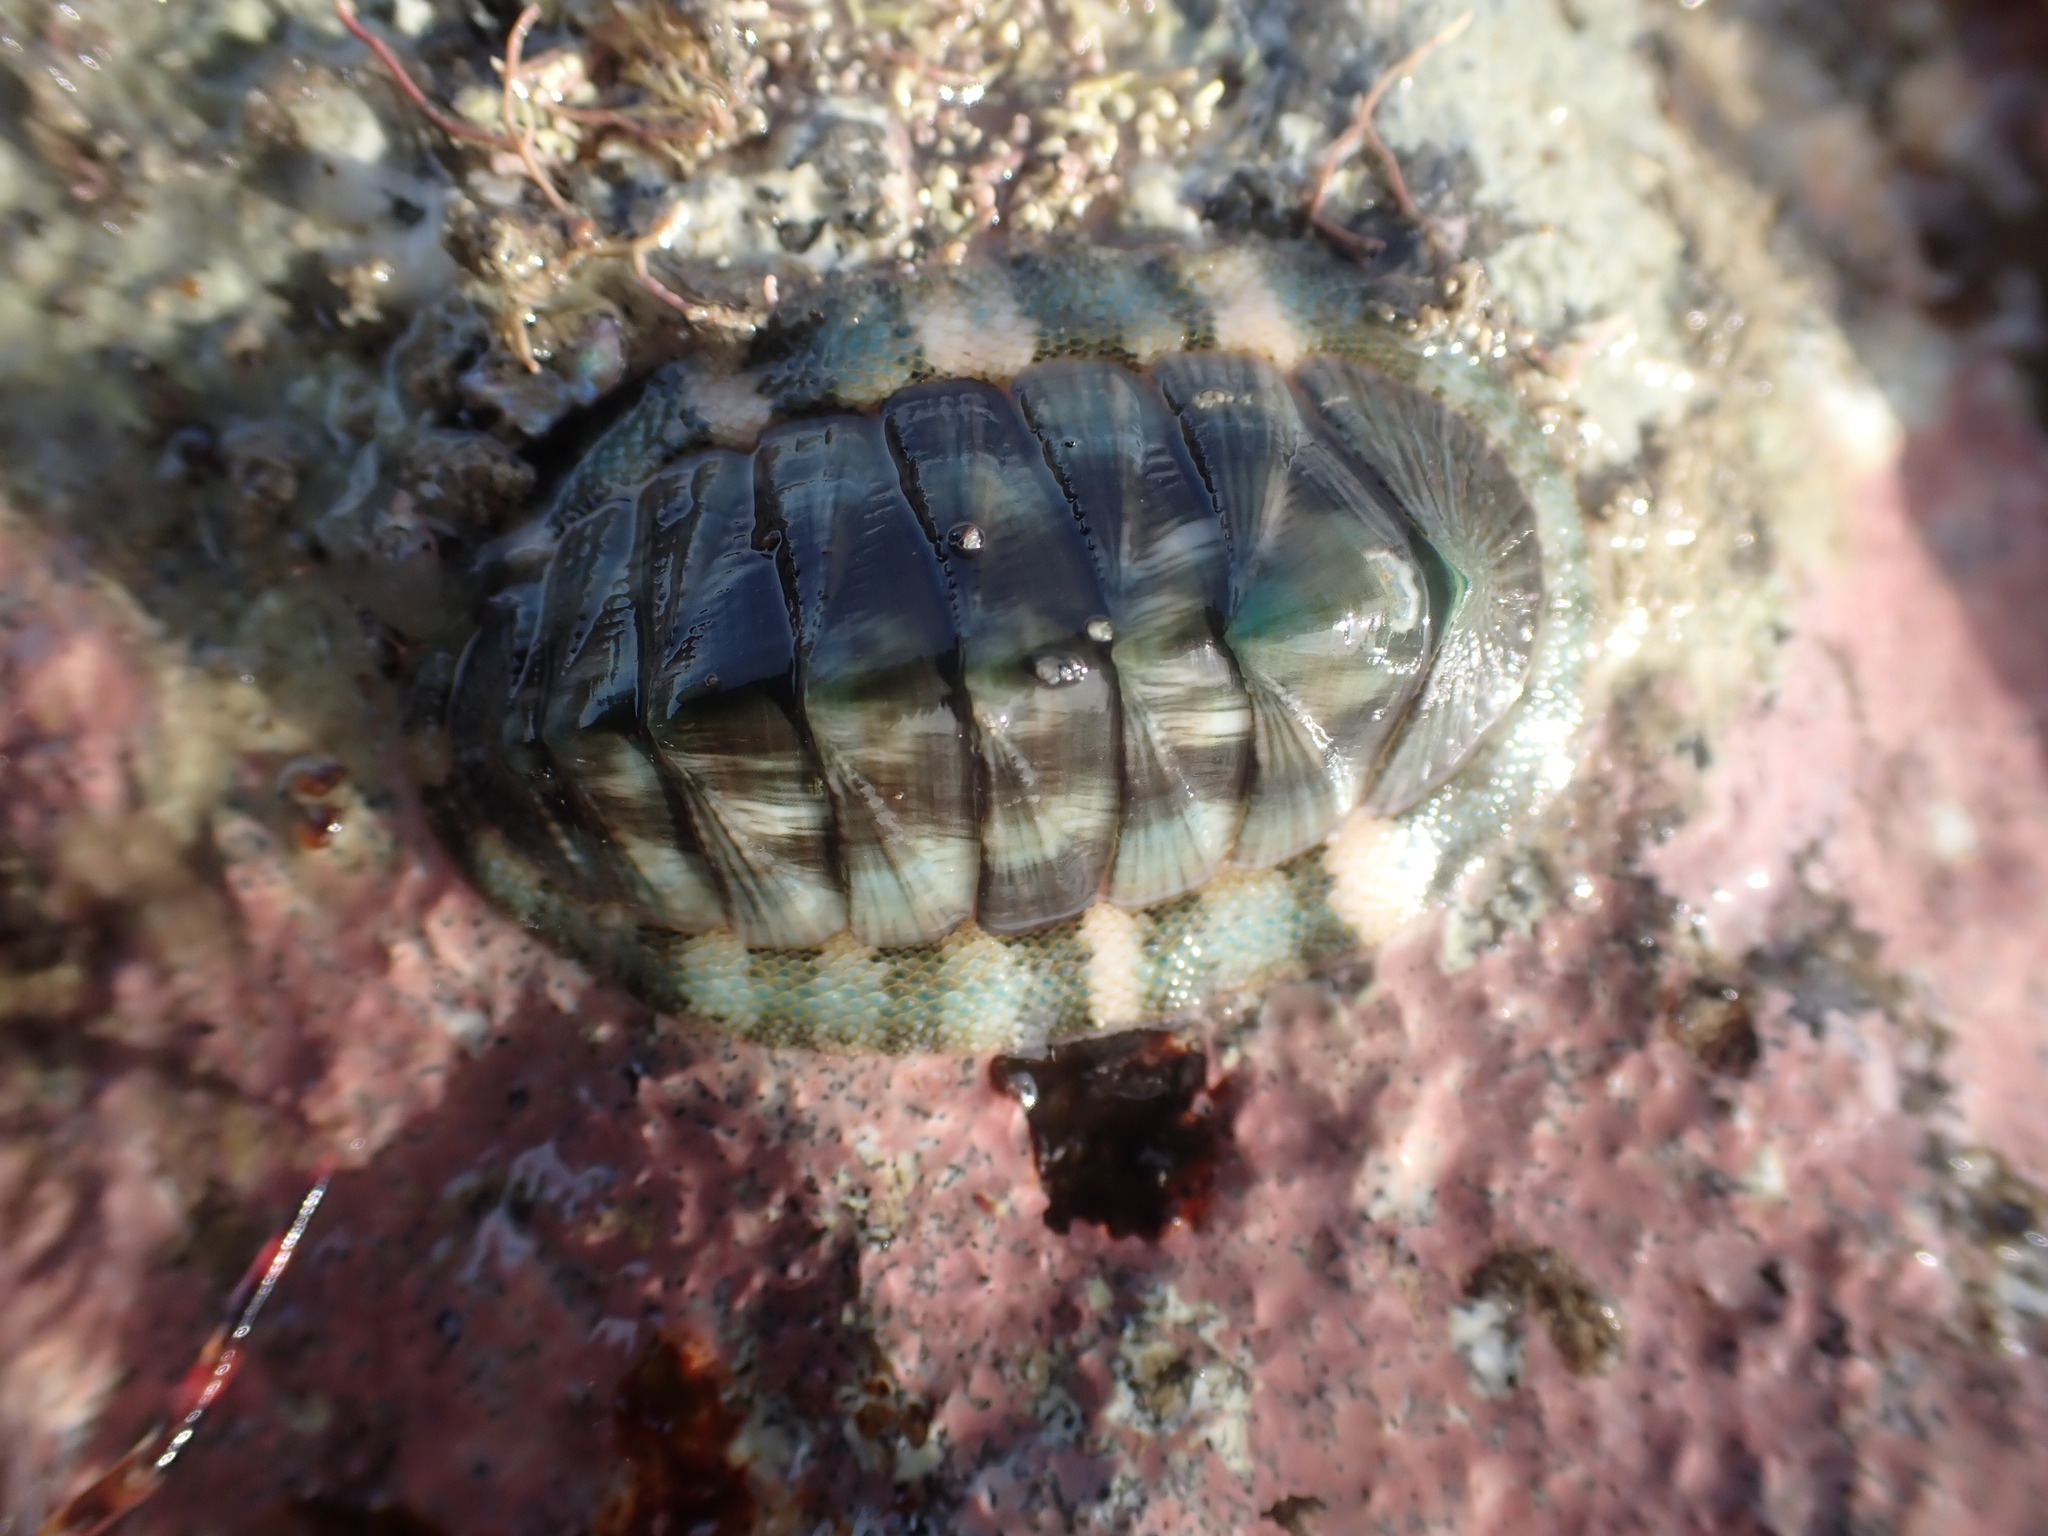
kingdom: Animalia
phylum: Mollusca
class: Polyplacophora
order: Chitonida
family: Chitonidae
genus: Rhyssoplax
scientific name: Rhyssoplax aerea
